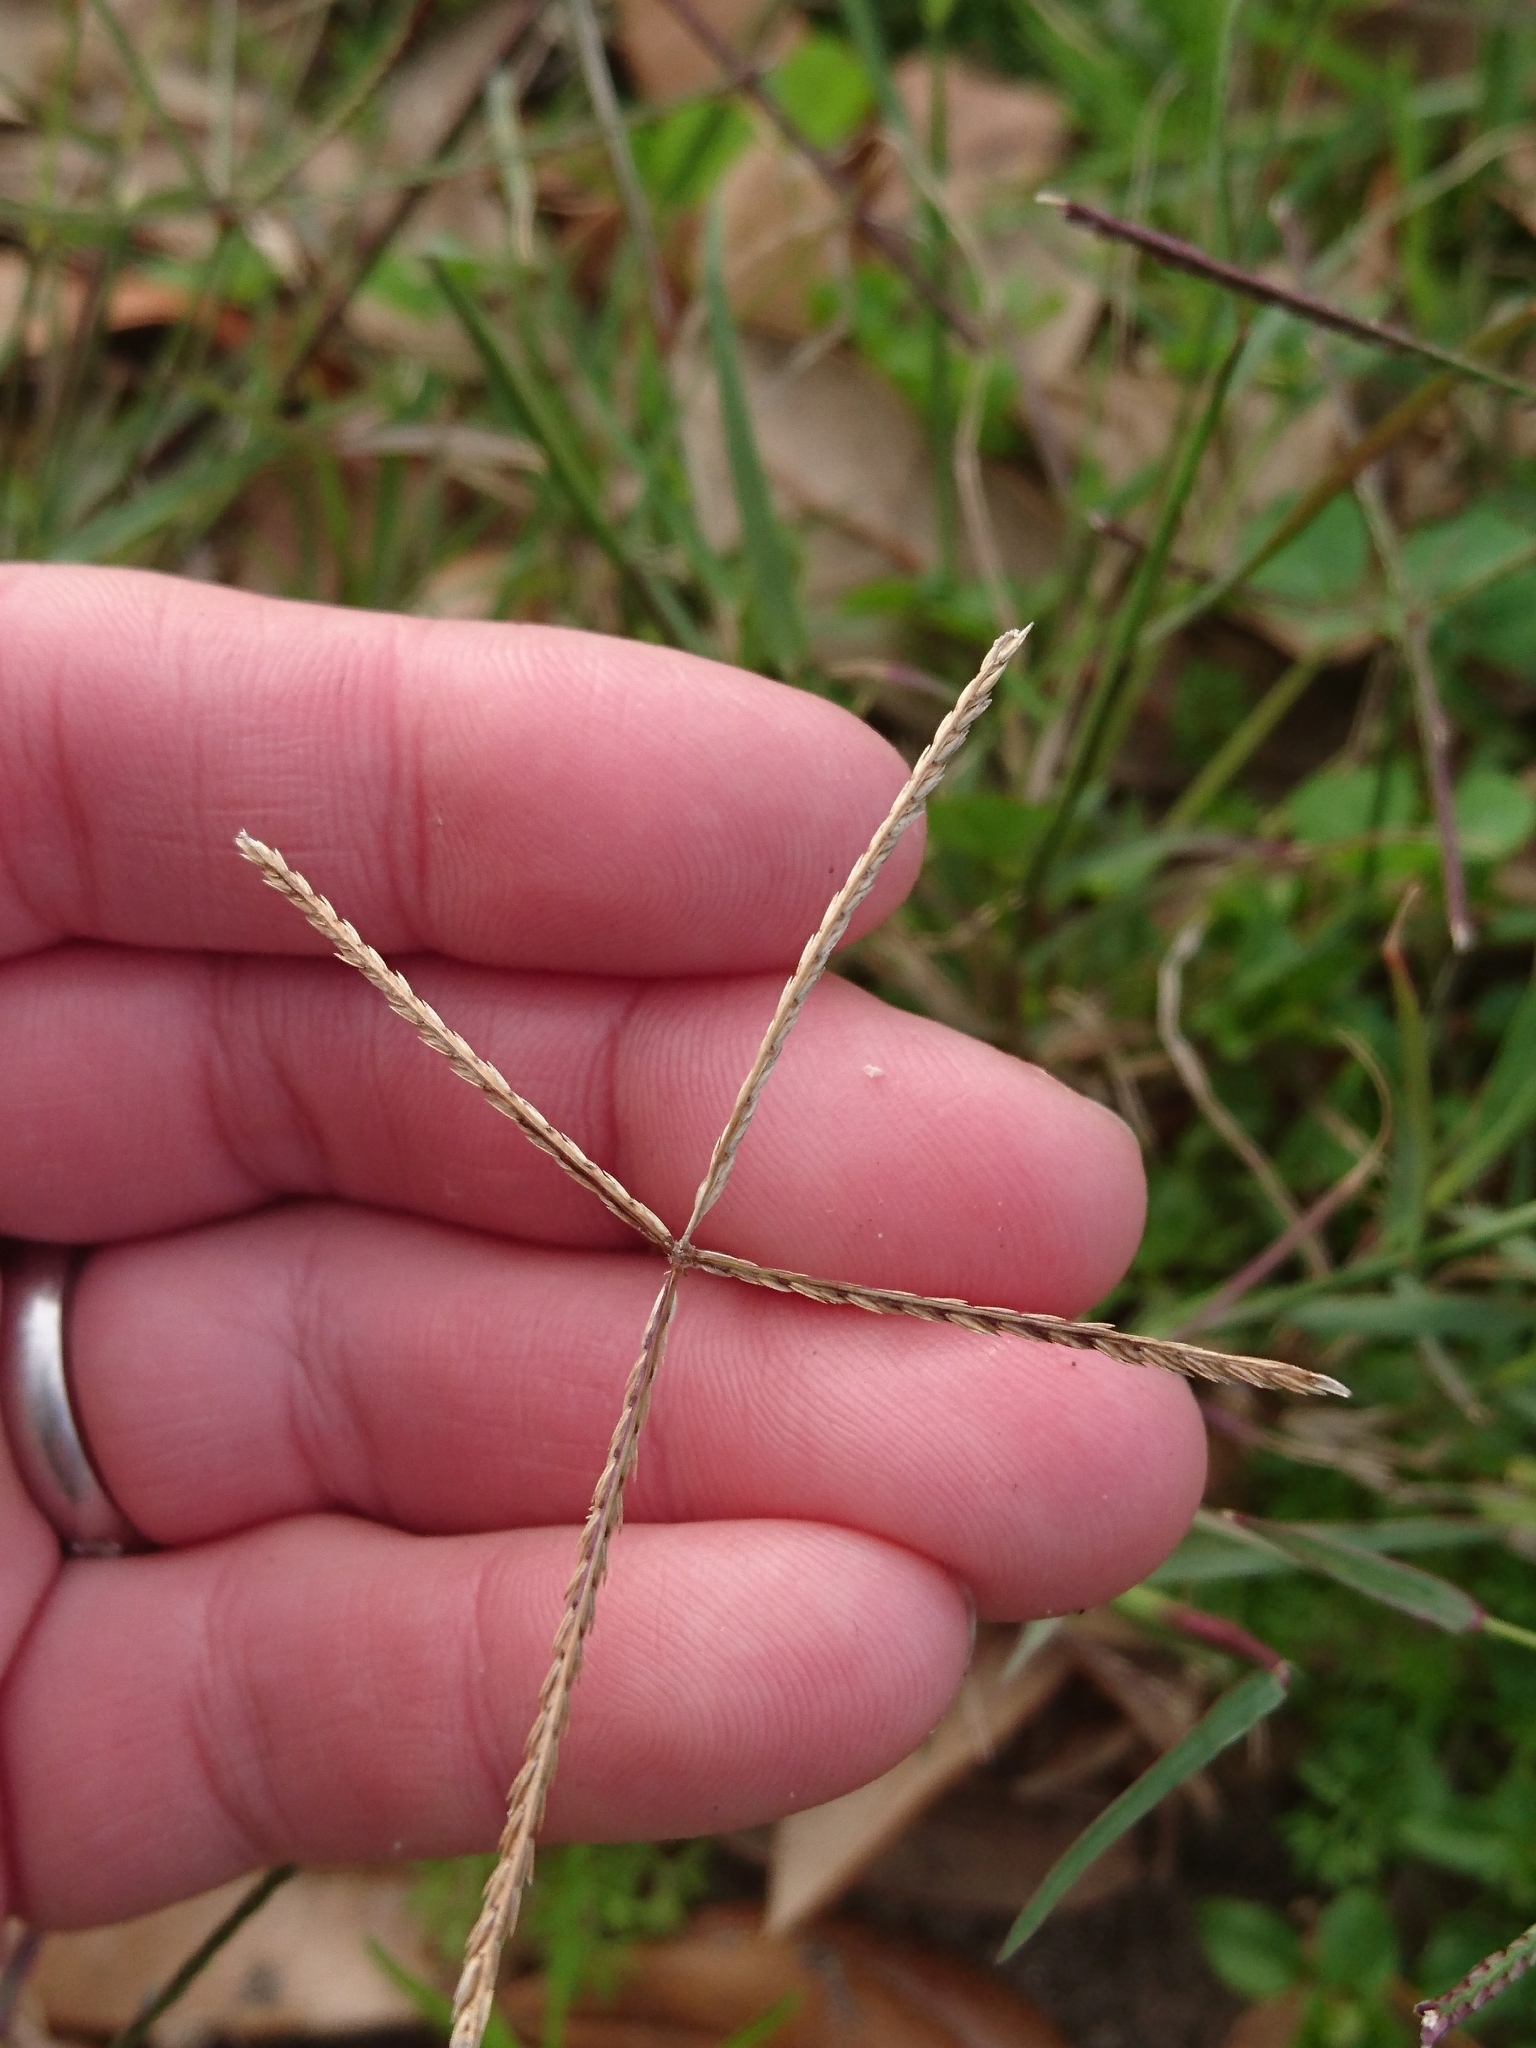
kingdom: Plantae
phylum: Tracheophyta
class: Liliopsida
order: Poales
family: Poaceae
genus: Cynodon
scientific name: Cynodon dactylon
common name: Bermuda grass
